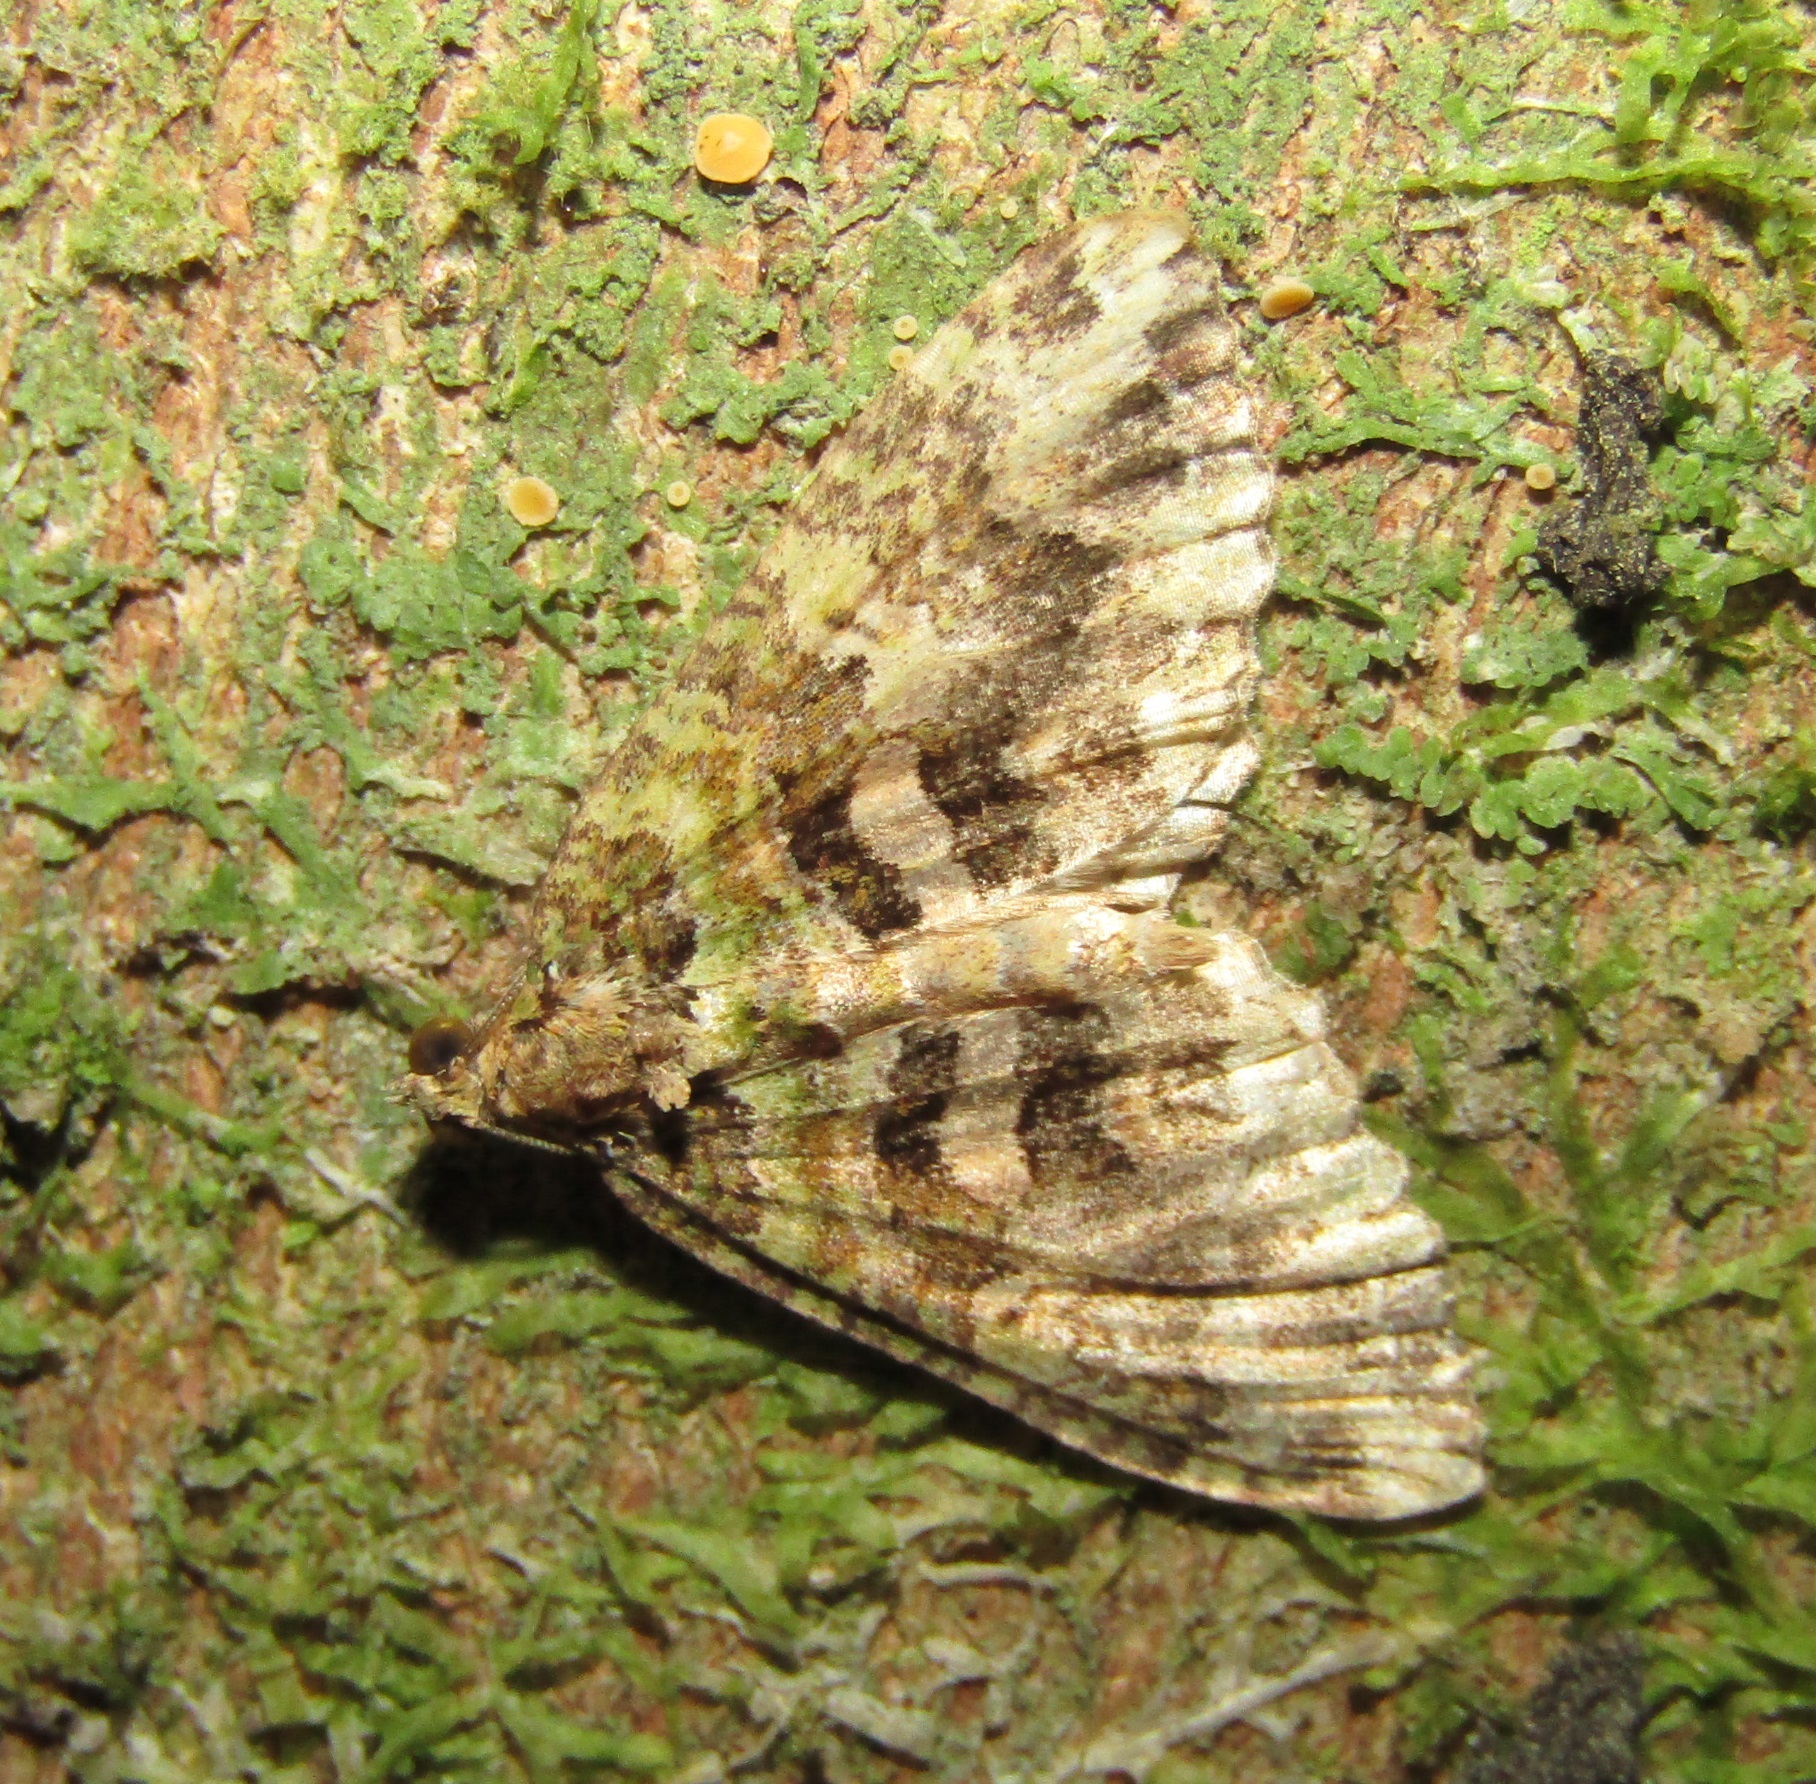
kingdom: Animalia
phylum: Arthropoda
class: Insecta
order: Lepidoptera
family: Geometridae
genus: Austrocidaria
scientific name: Austrocidaria similata
